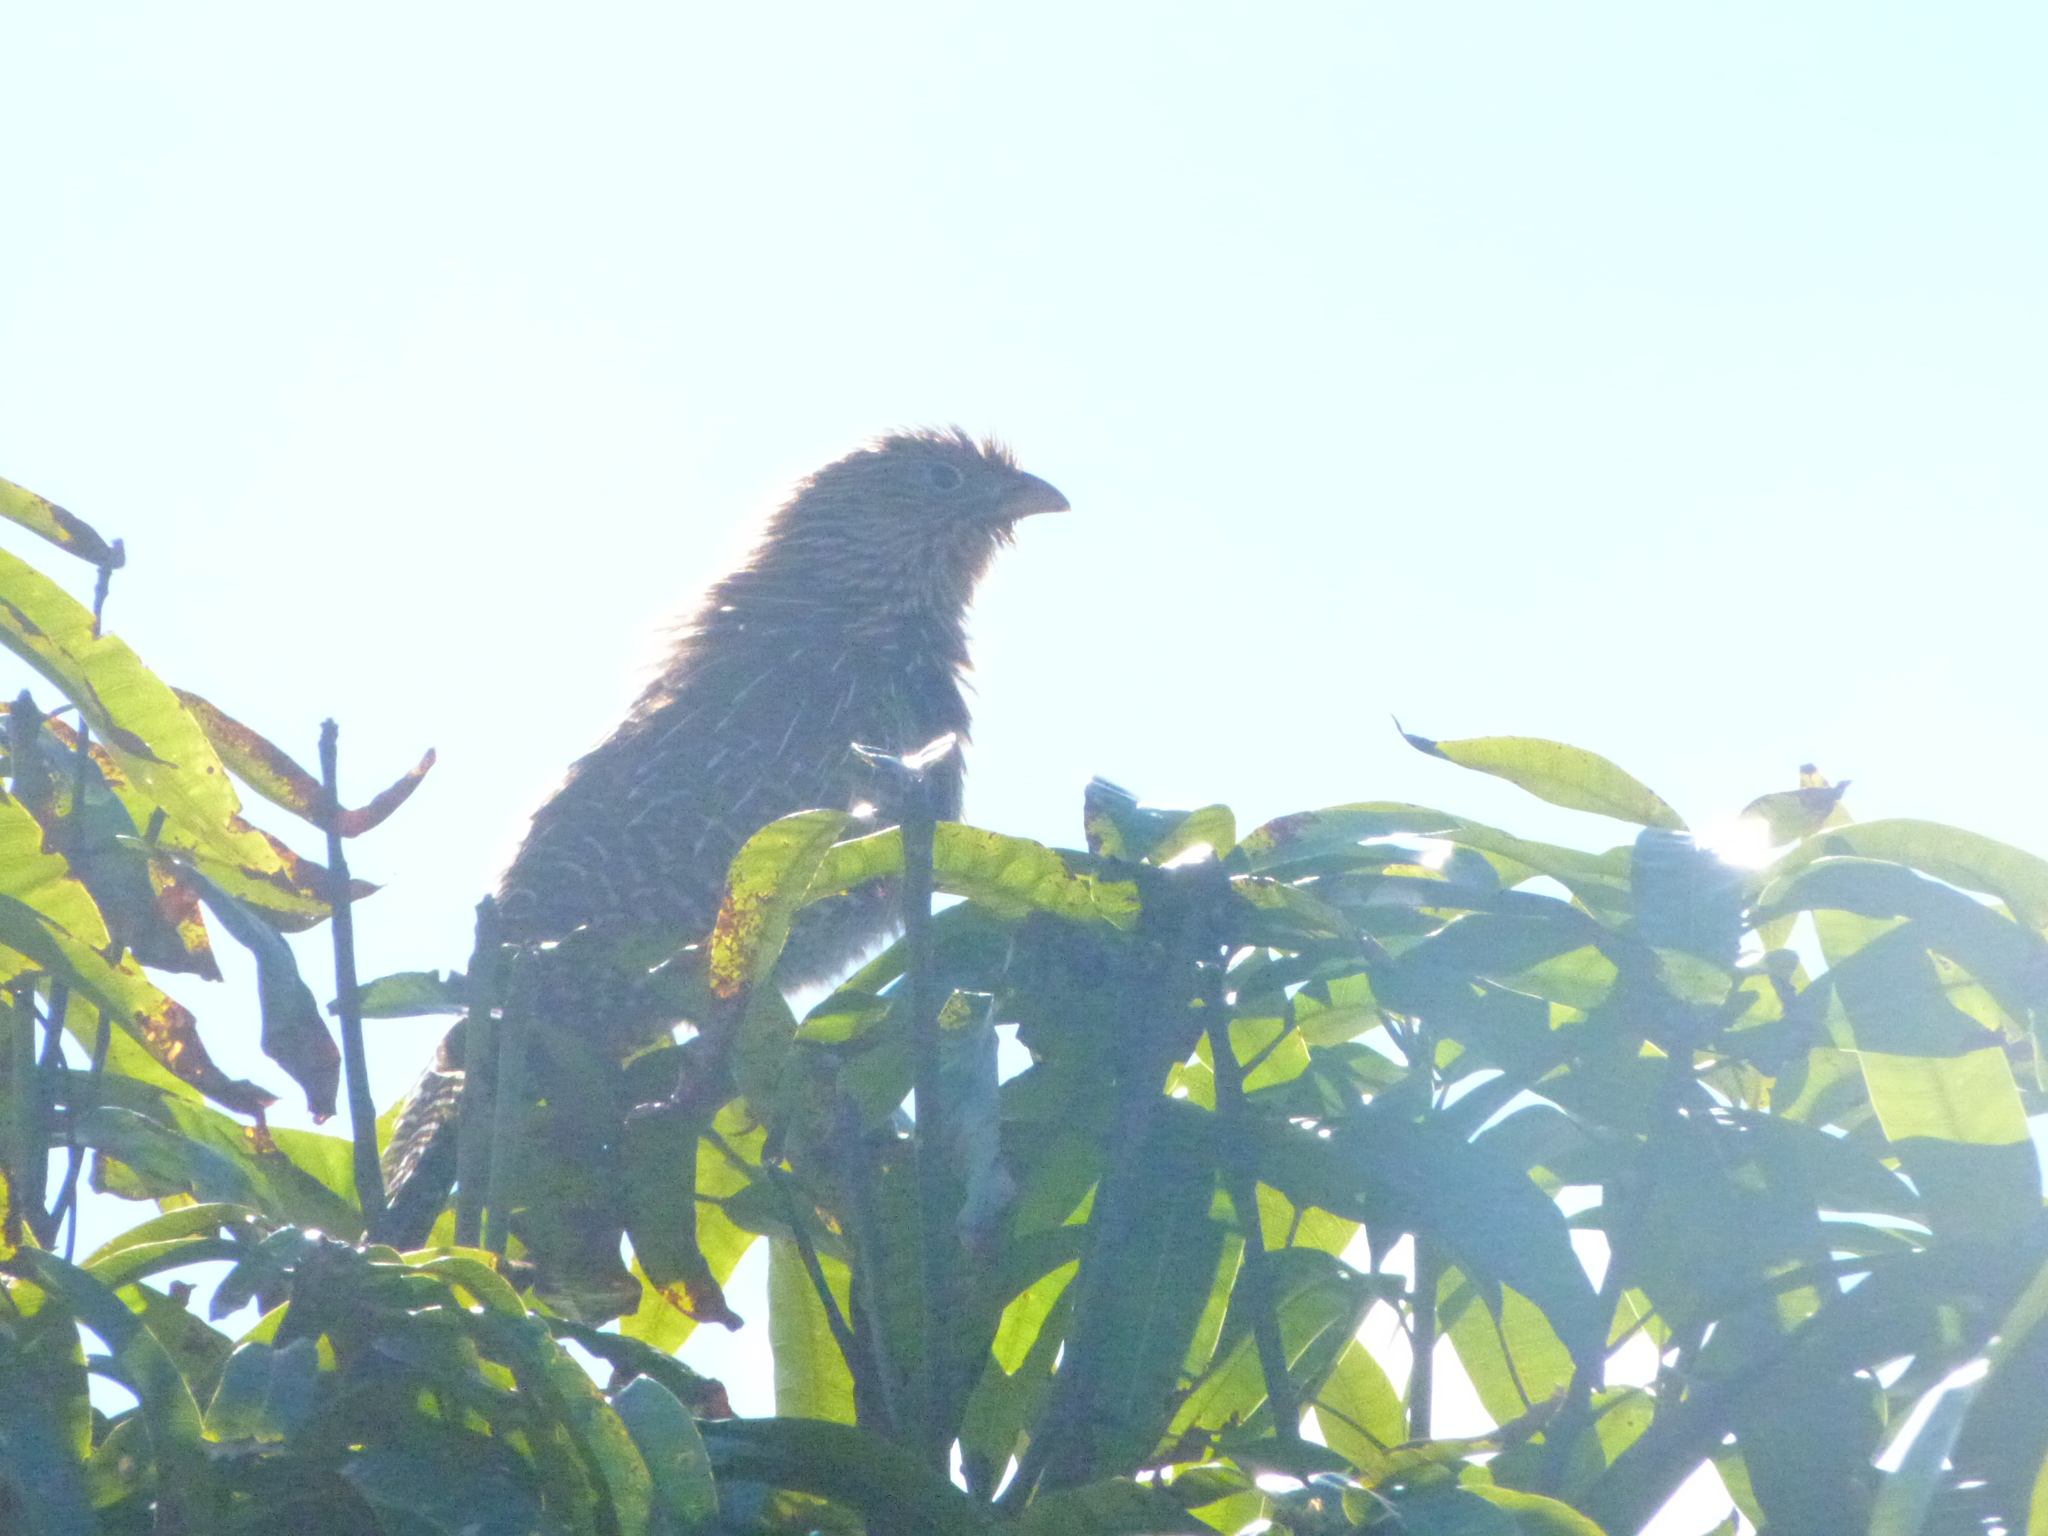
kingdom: Animalia
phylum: Chordata
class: Aves
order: Cuculiformes
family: Cuculidae
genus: Centropus
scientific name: Centropus phasianinus
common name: Pheasant coucal
